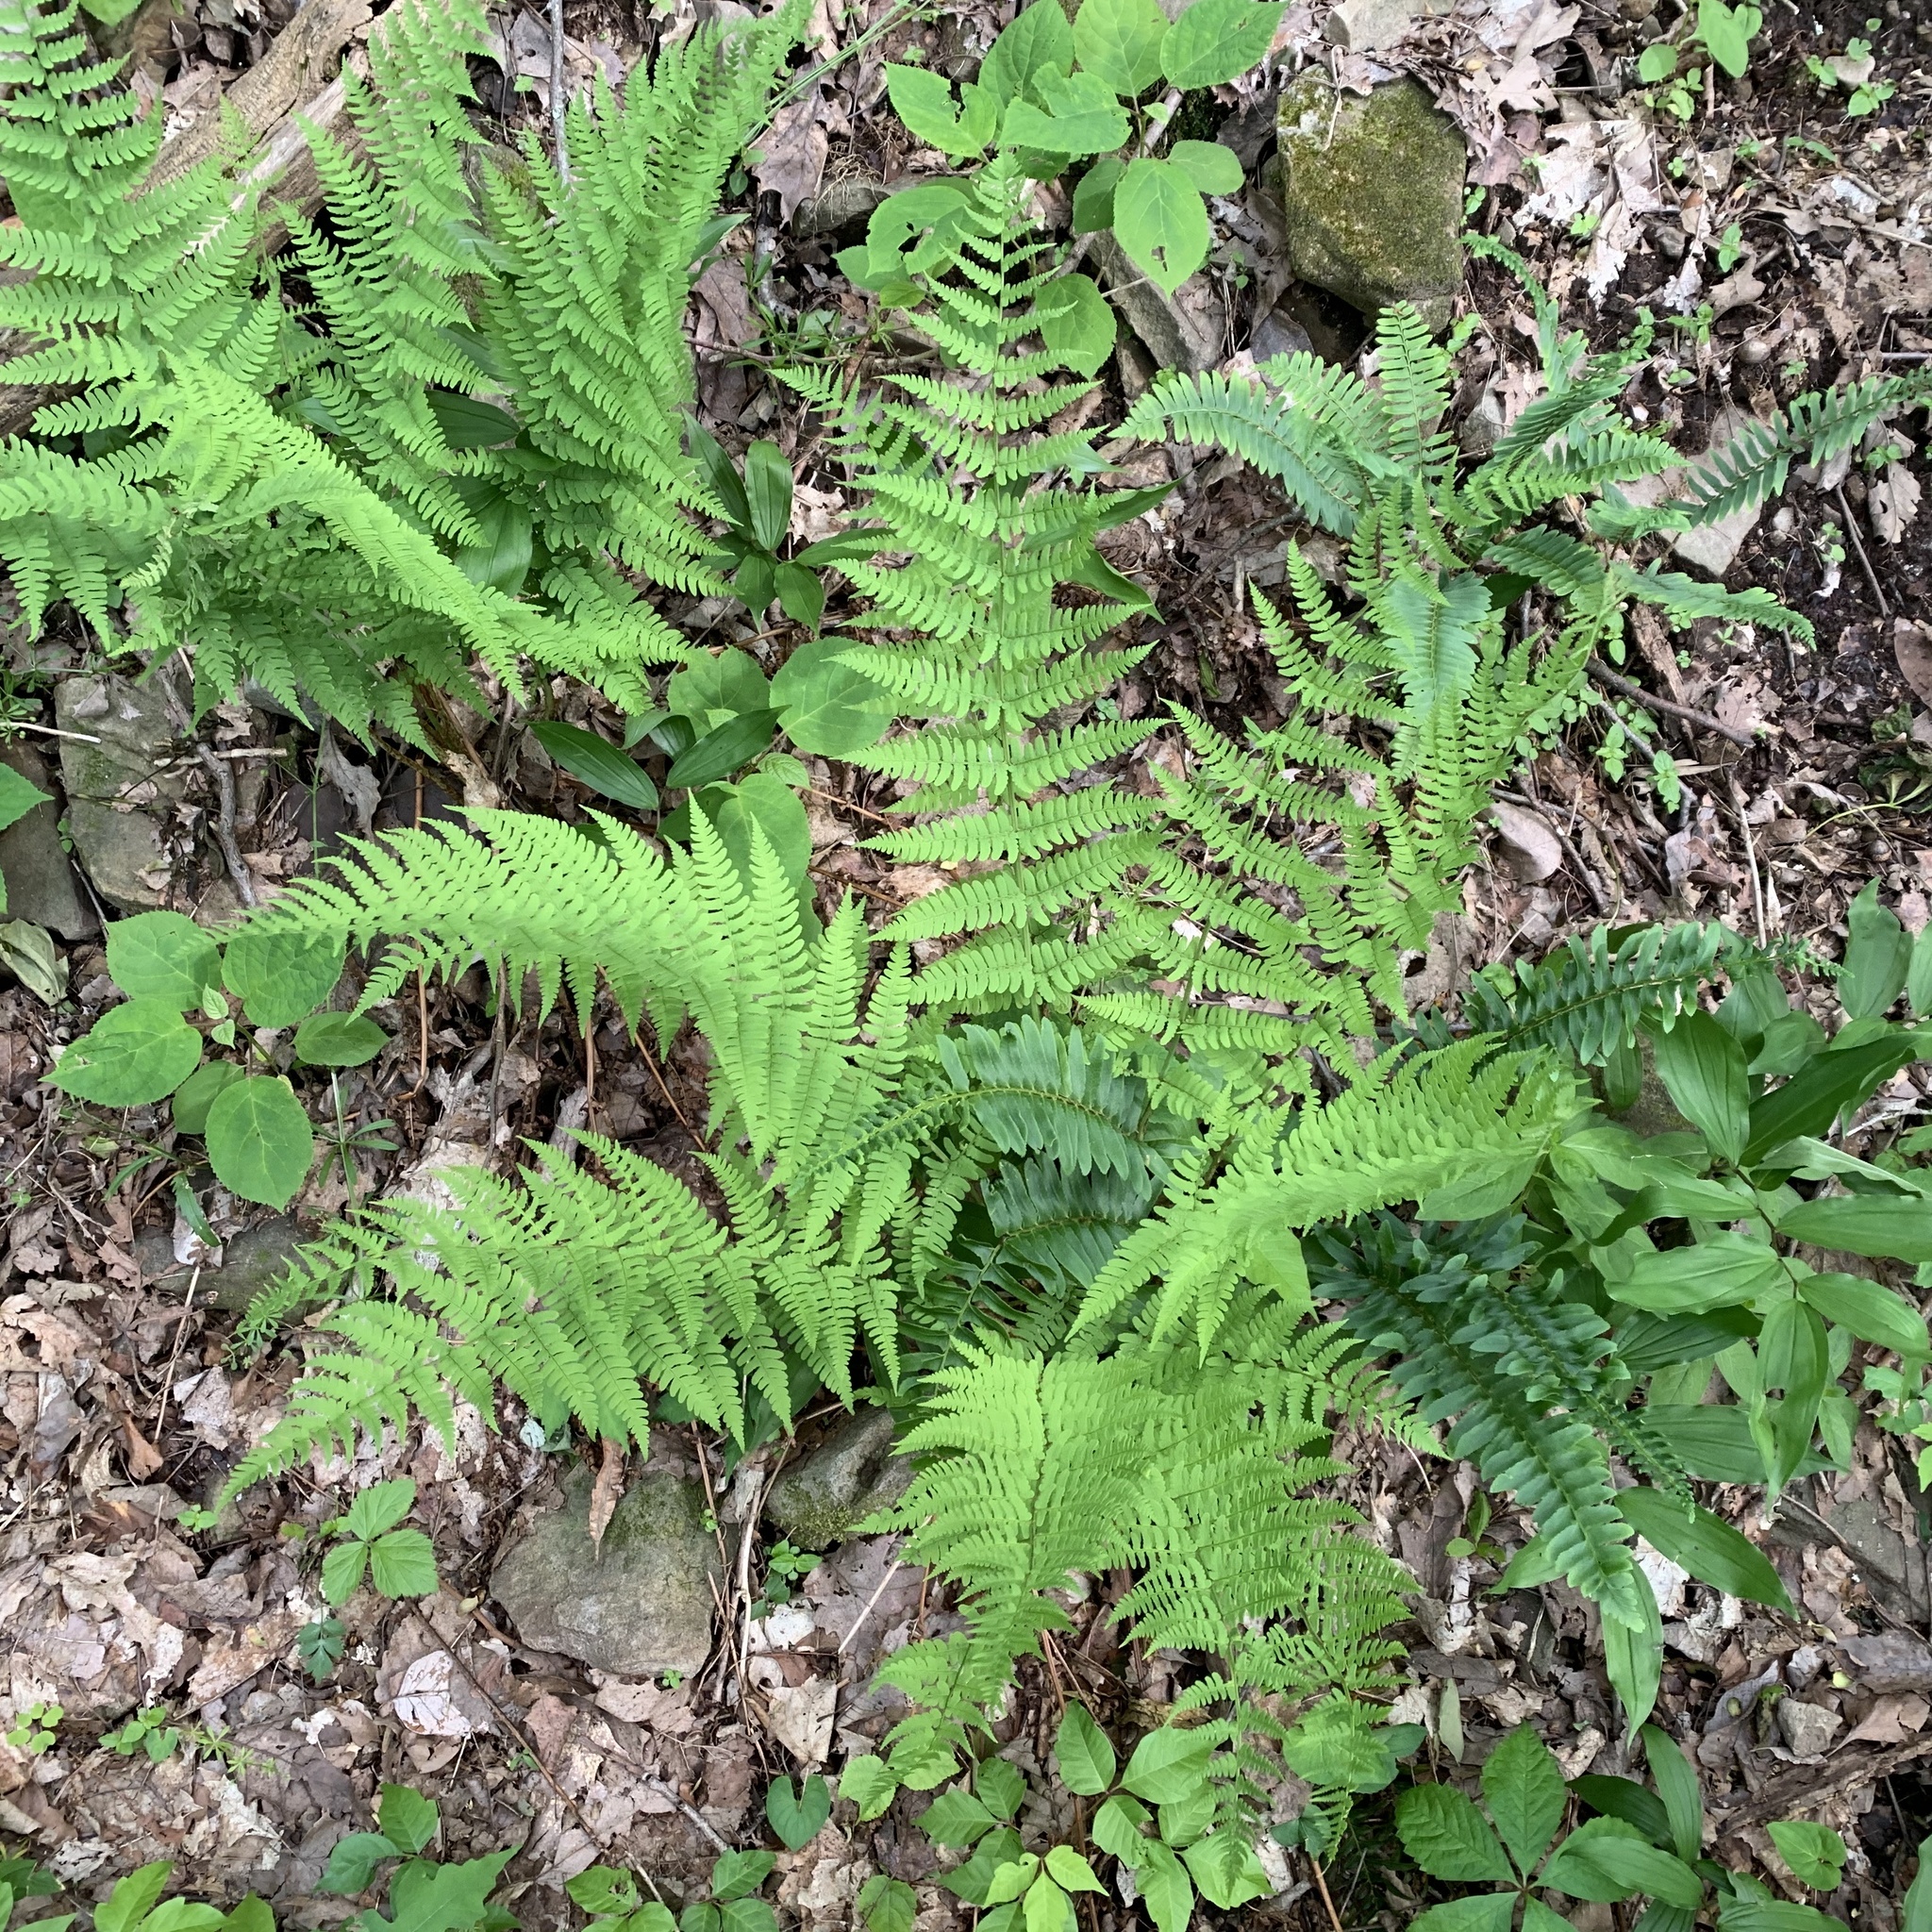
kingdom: Plantae
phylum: Tracheophyta
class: Polypodiopsida
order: Polypodiales
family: Dryopteridaceae
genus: Dryopteris
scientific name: Dryopteris marginalis
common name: Marginal wood fern
